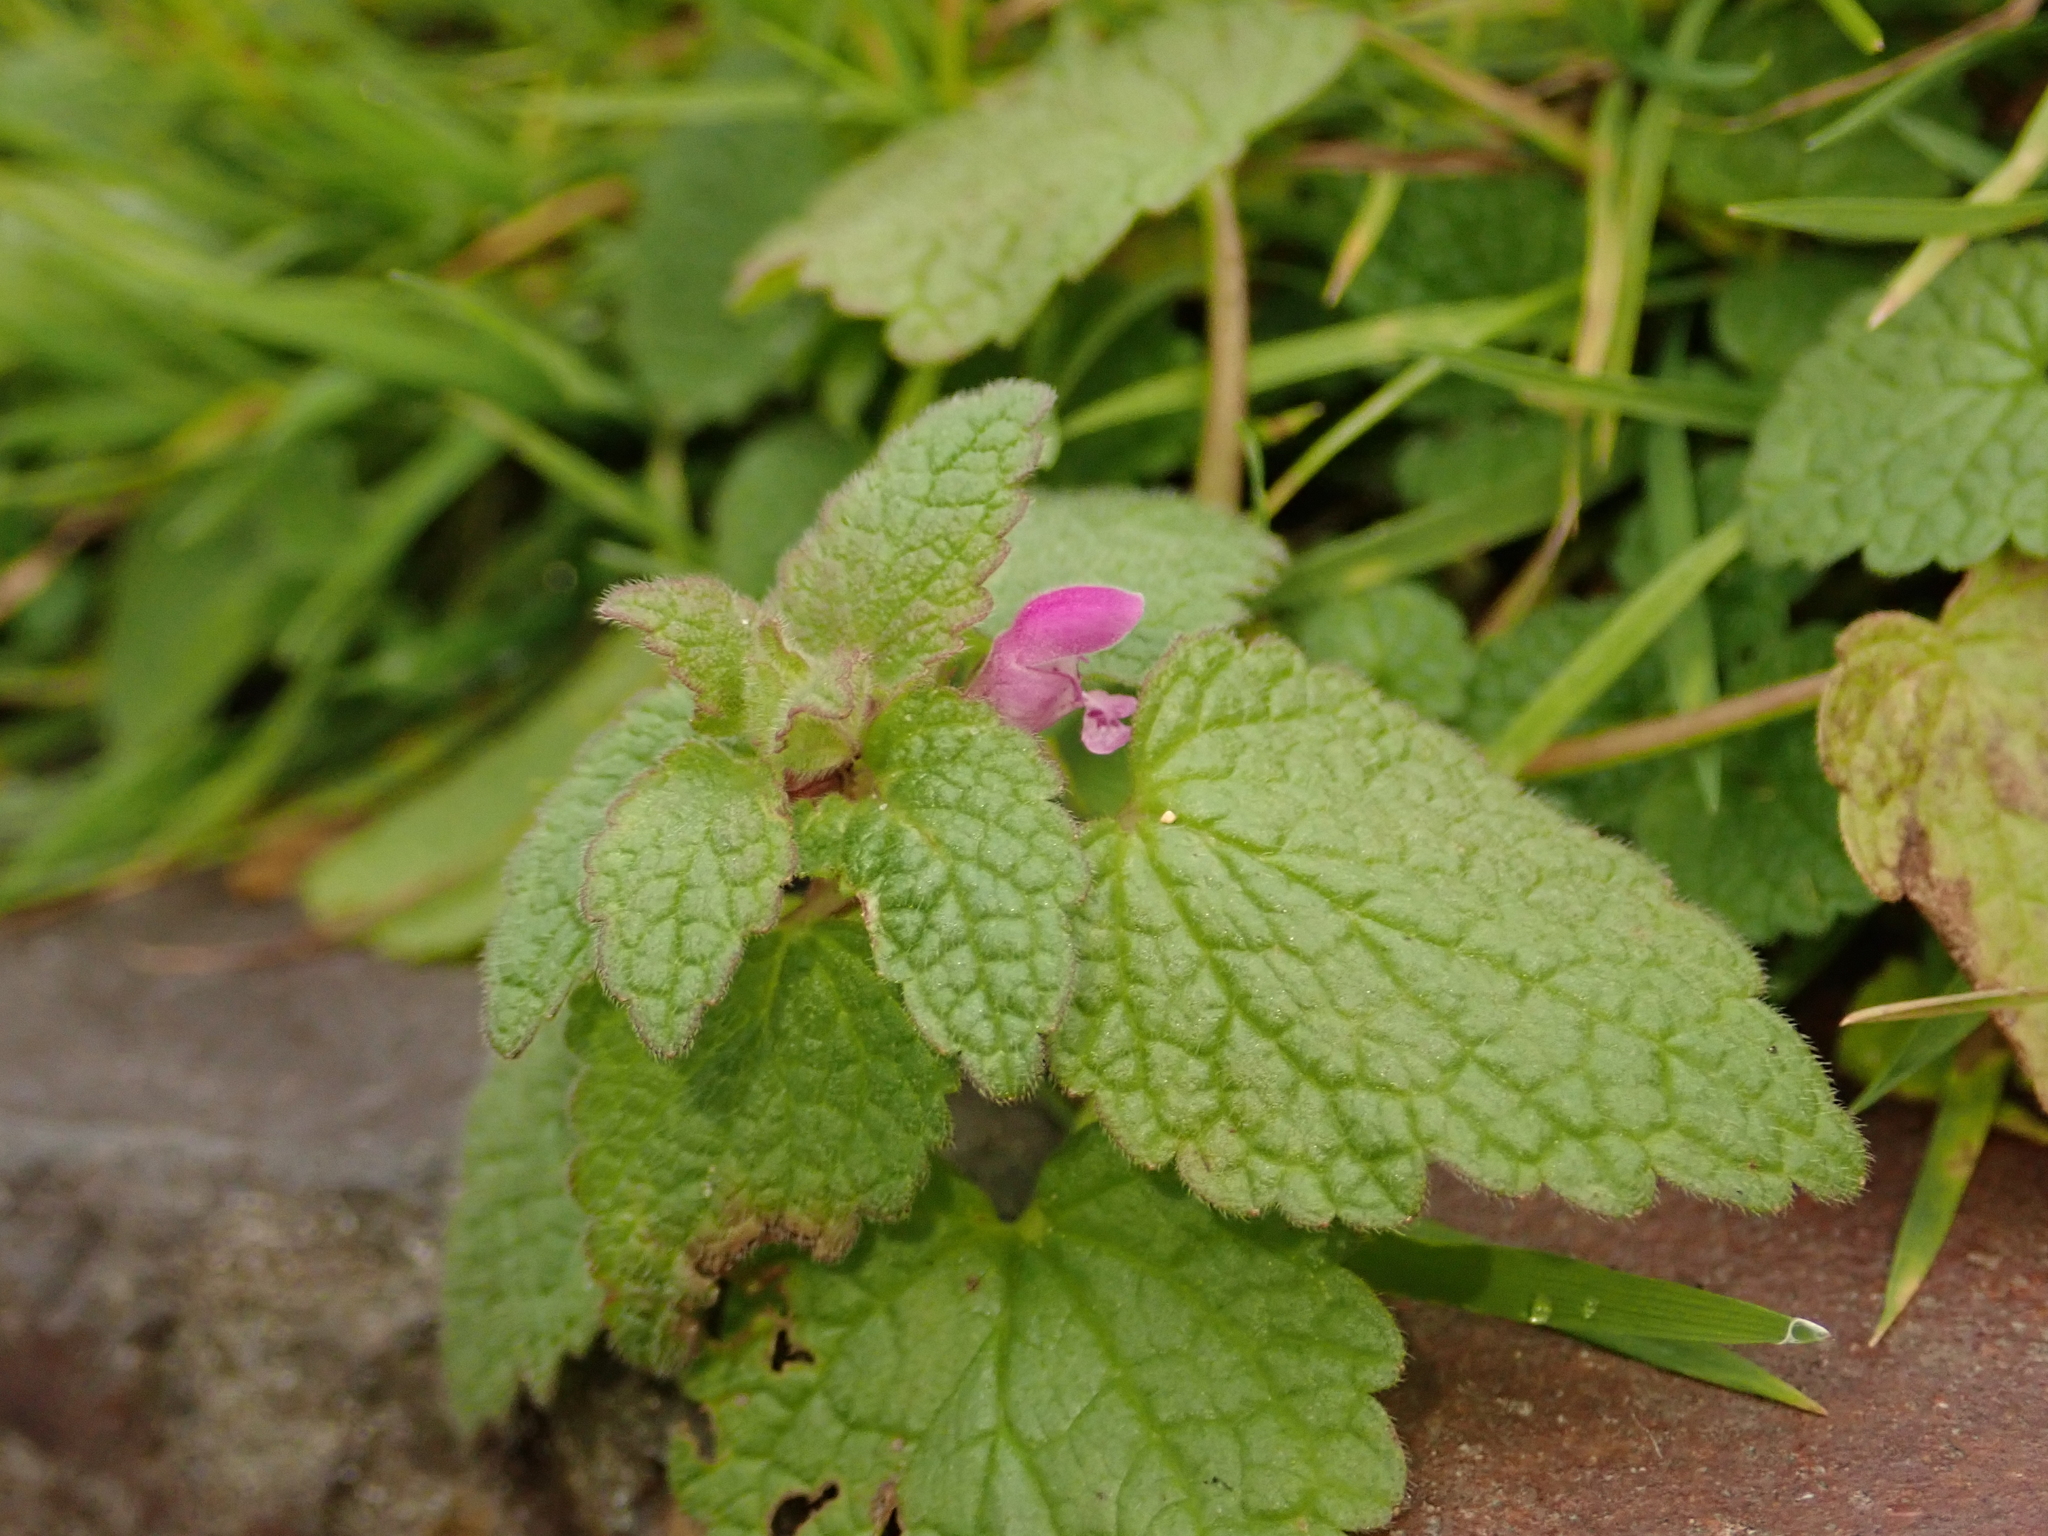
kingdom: Plantae
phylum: Tracheophyta
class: Magnoliopsida
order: Lamiales
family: Lamiaceae
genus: Lamium
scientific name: Lamium purpureum
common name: Red dead-nettle
